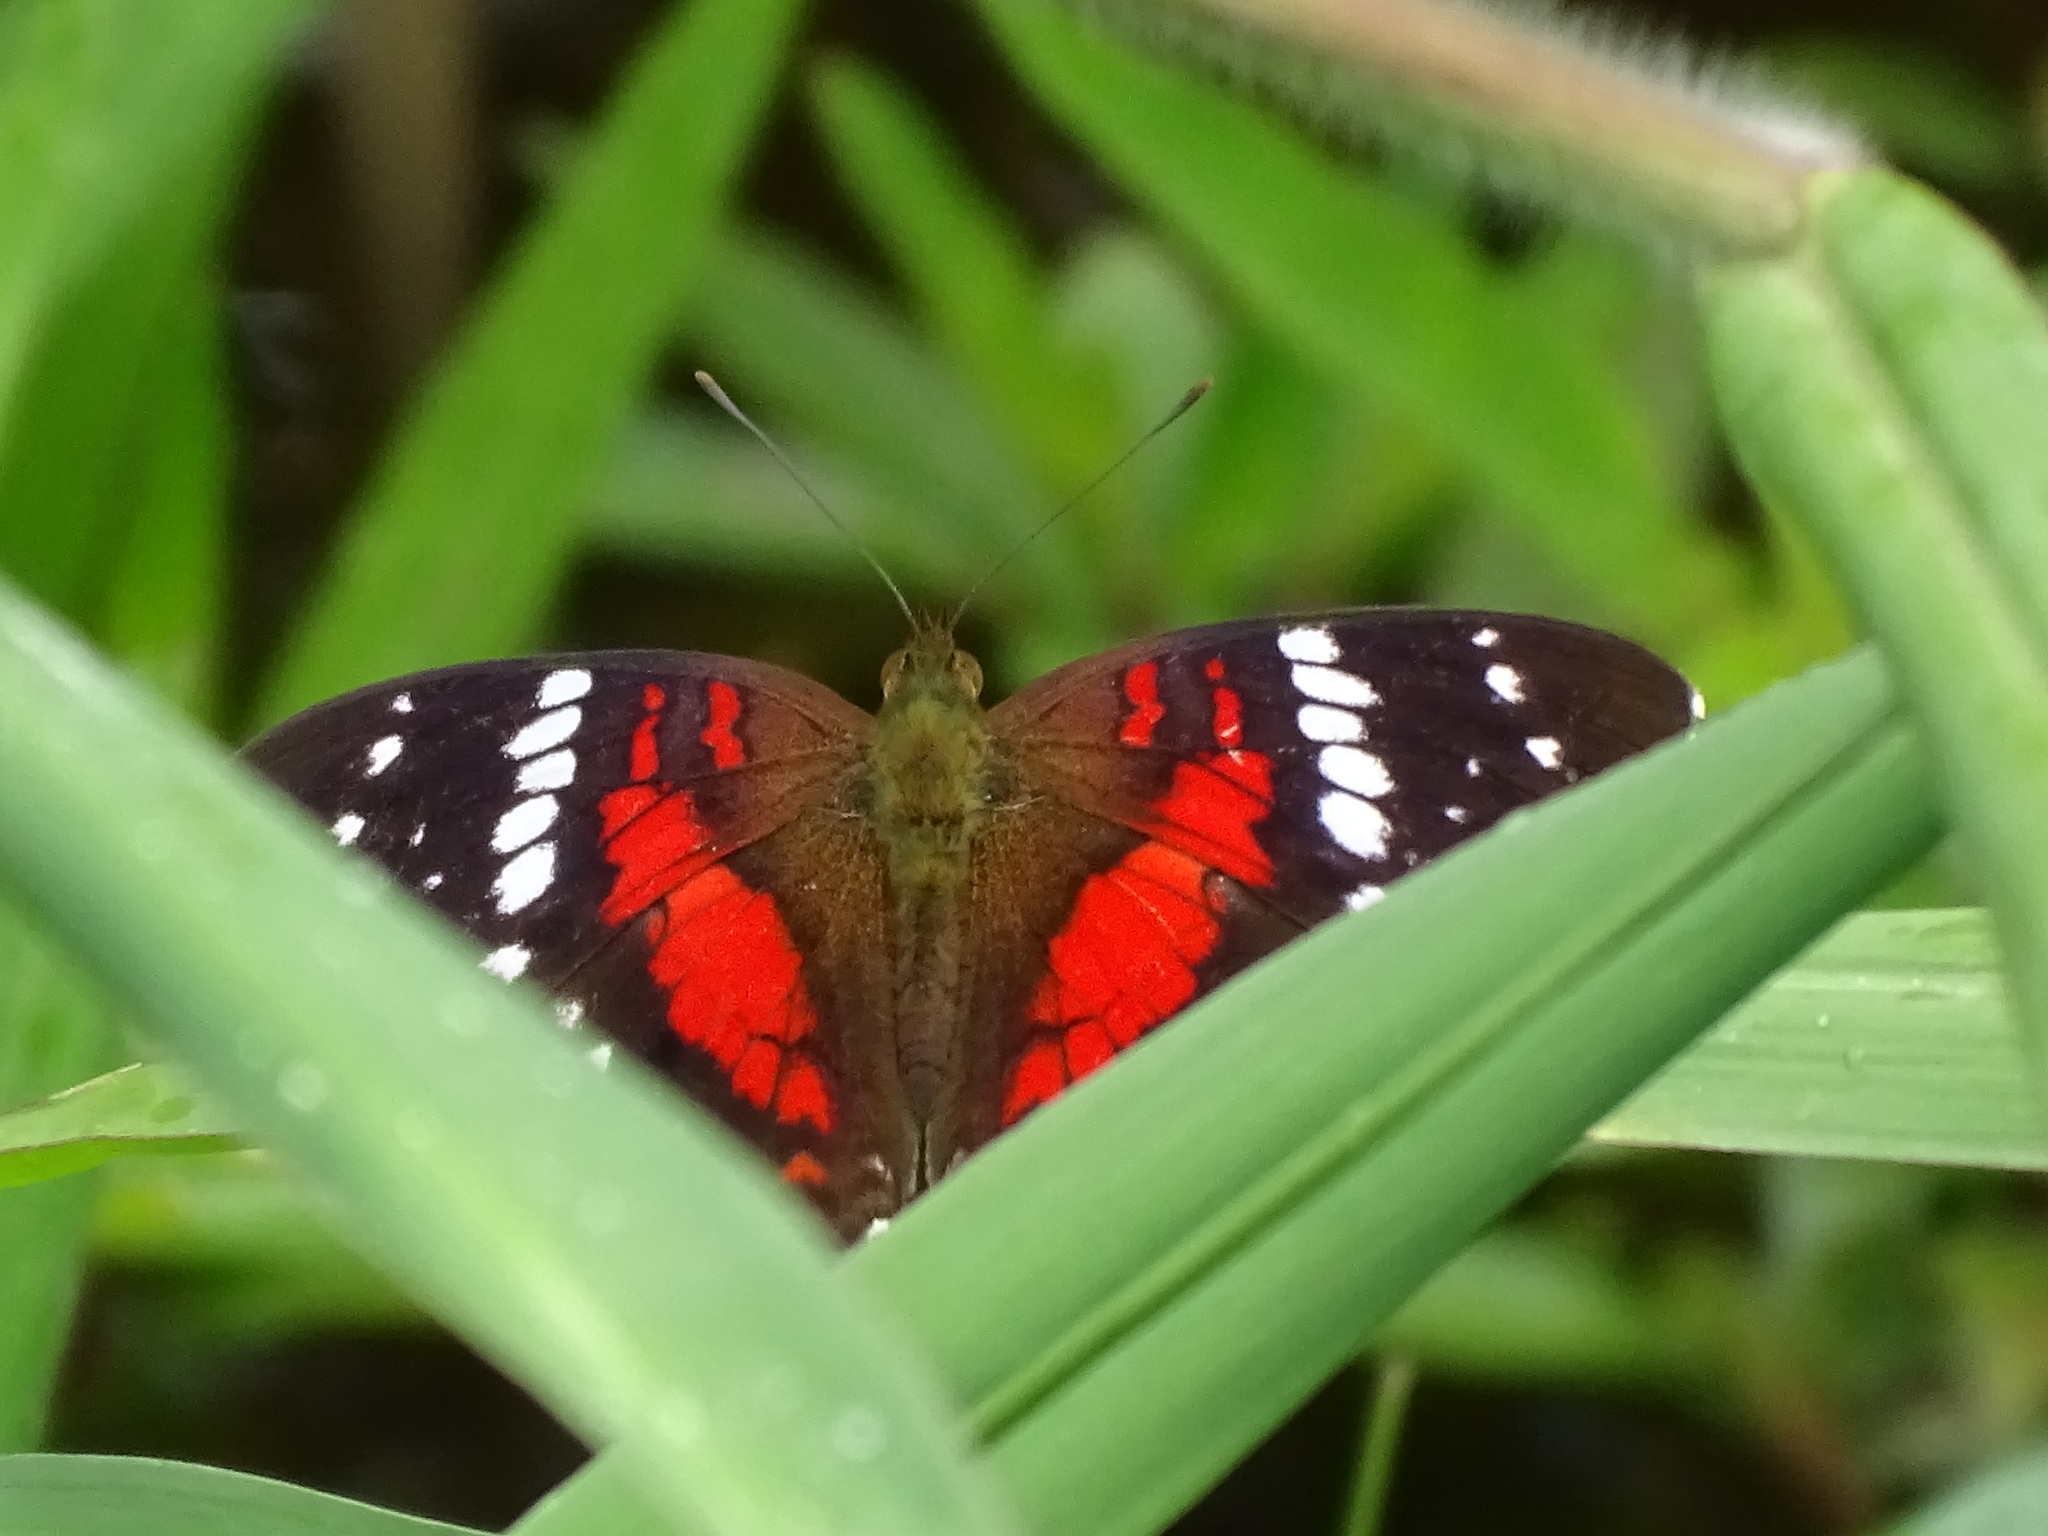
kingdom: Animalia
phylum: Arthropoda
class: Insecta
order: Lepidoptera
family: Nymphalidae
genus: Anartia
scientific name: Anartia amathea
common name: Red peacock
